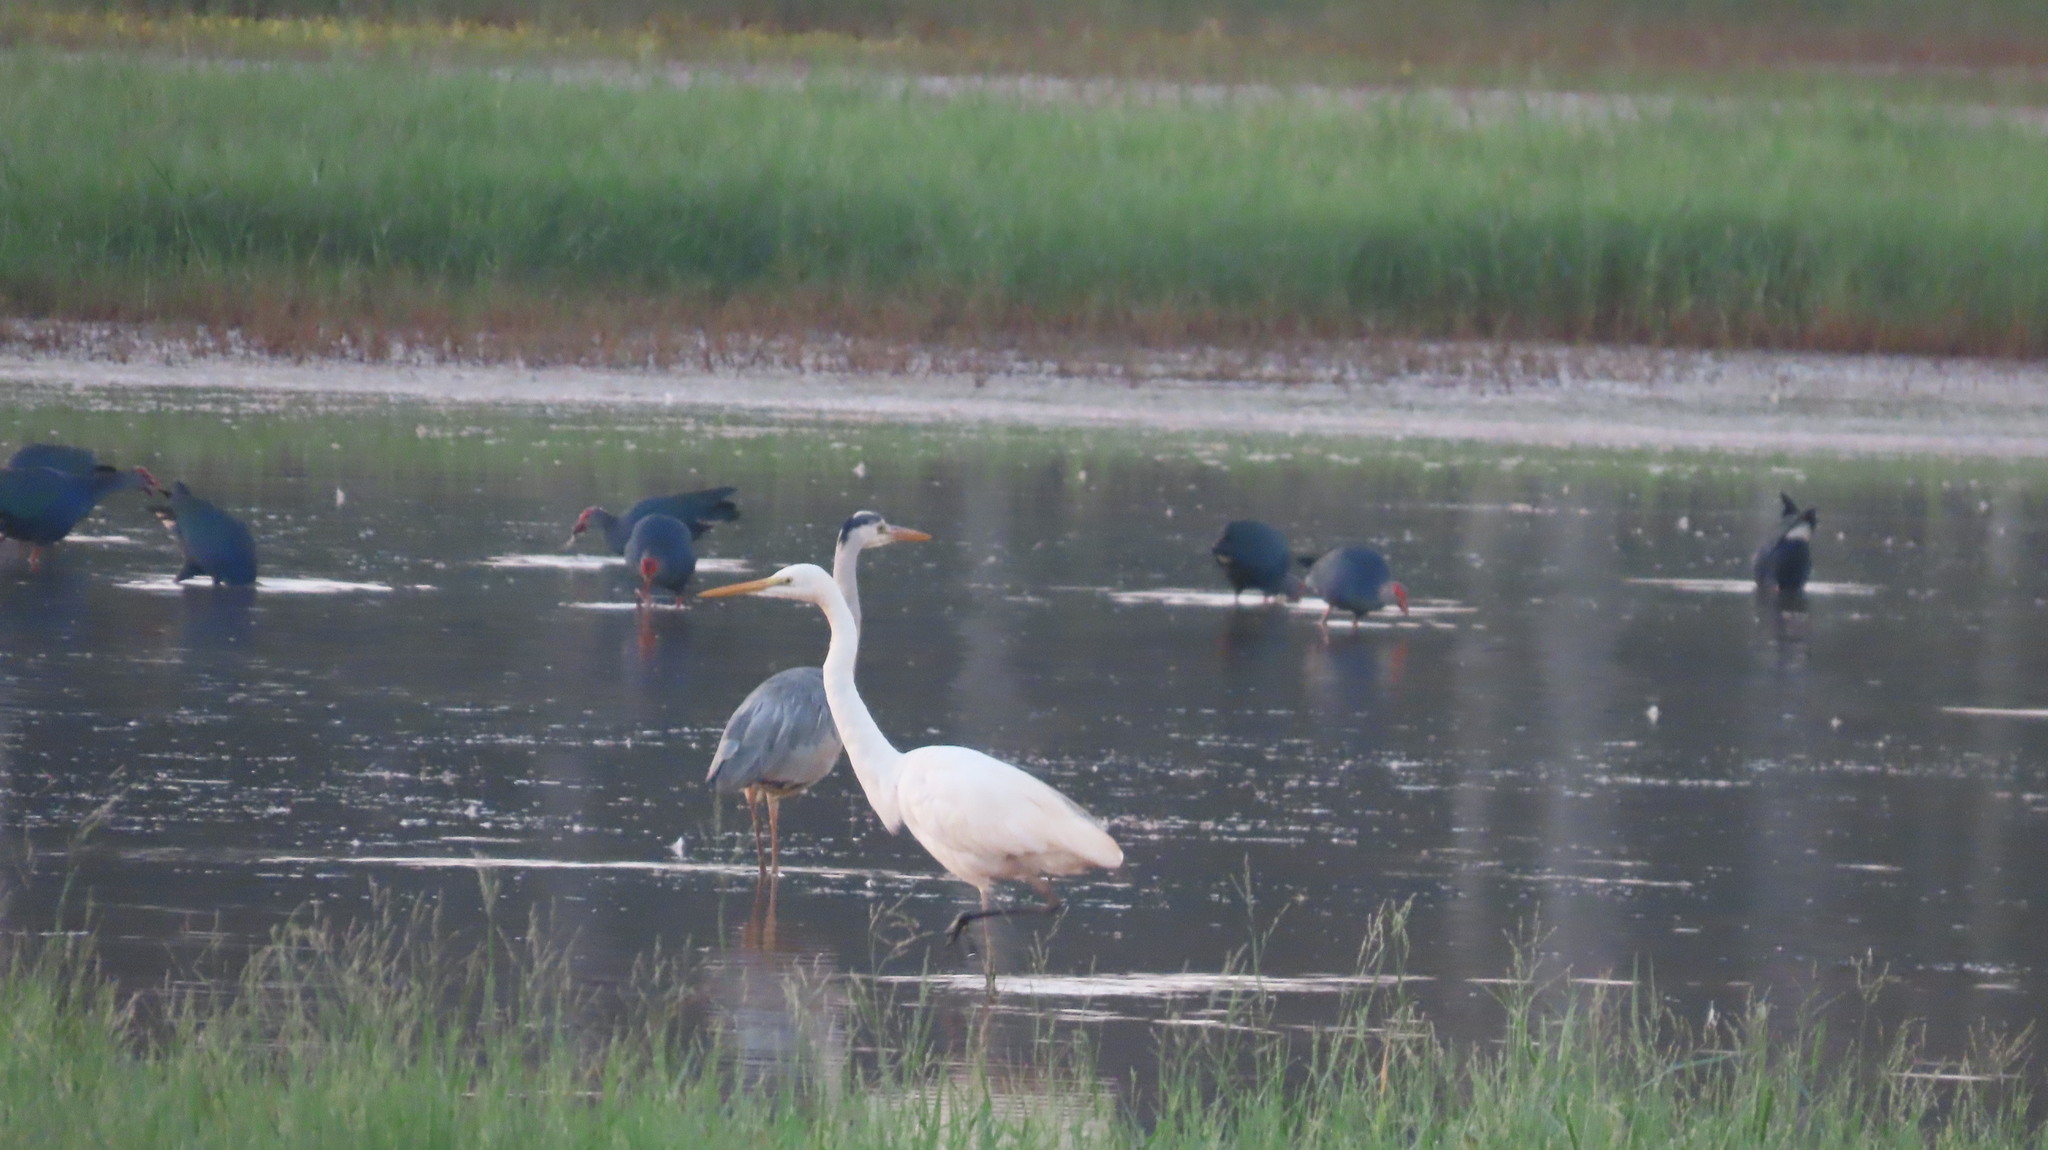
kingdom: Animalia
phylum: Chordata
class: Aves
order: Gruiformes
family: Rallidae
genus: Porphyrio
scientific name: Porphyrio porphyrio
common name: Purple swamphen
